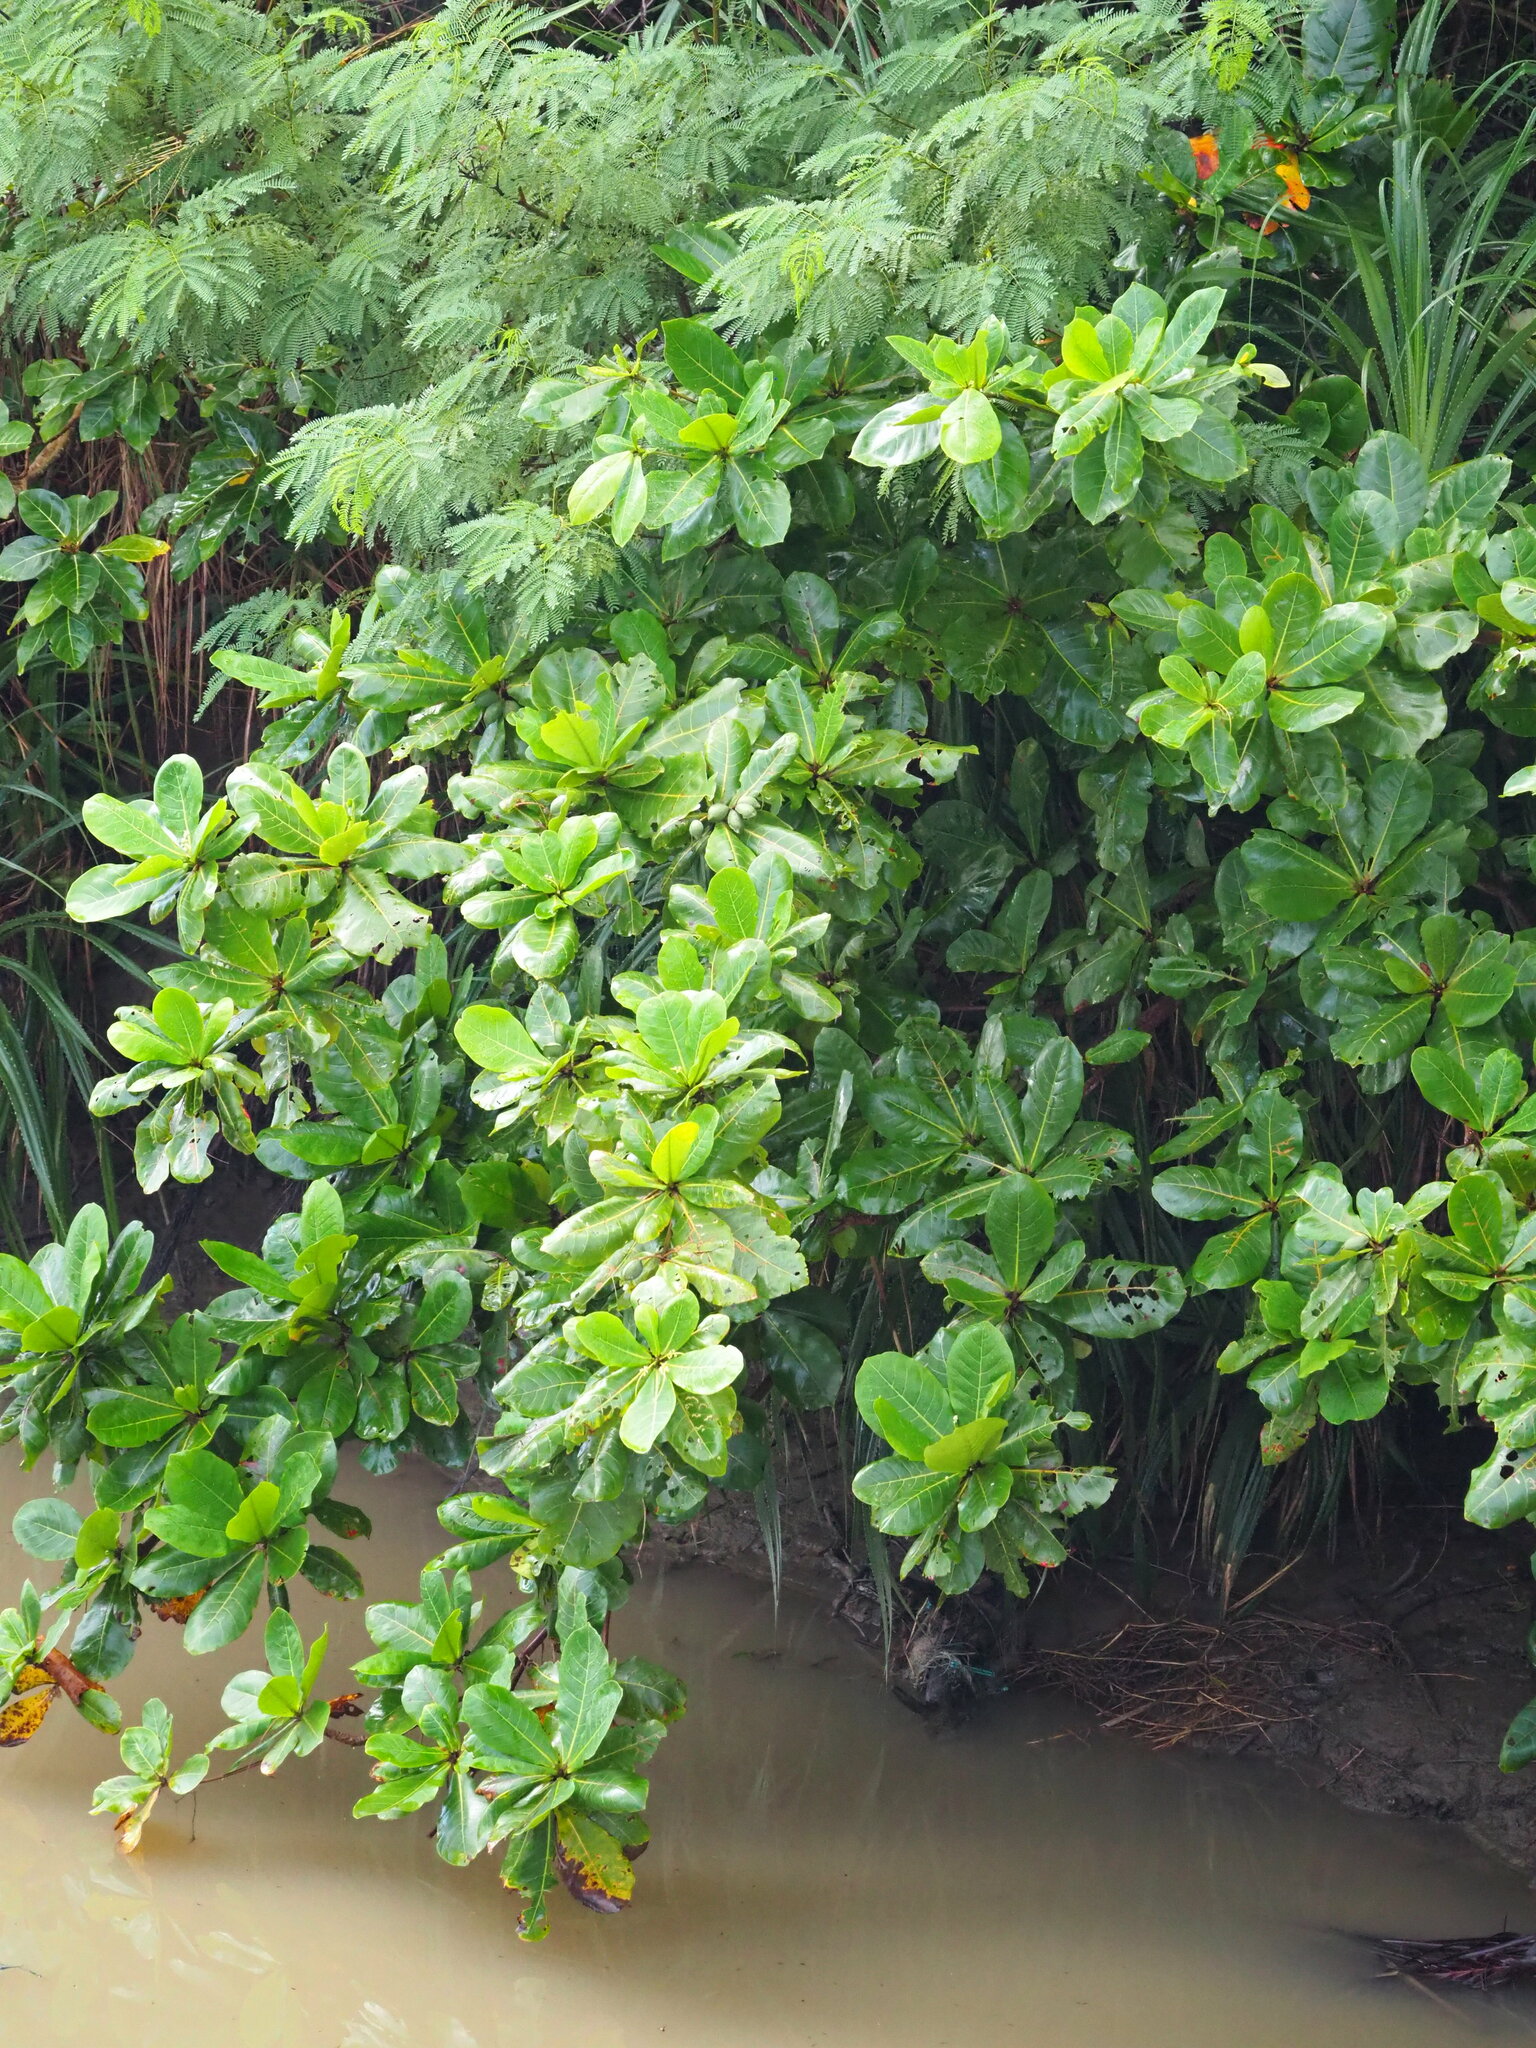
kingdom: Plantae
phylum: Tracheophyta
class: Magnoliopsida
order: Myrtales
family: Combretaceae
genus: Terminalia
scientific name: Terminalia catappa
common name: Tropical almond
